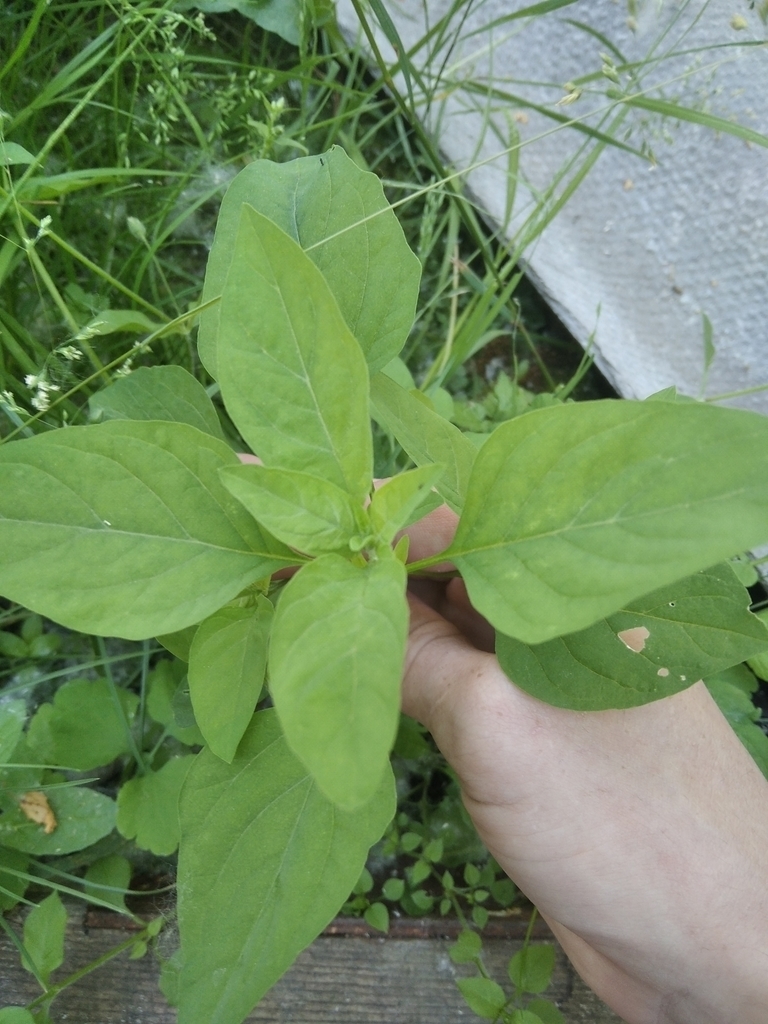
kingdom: Plantae
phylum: Tracheophyta
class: Magnoliopsida
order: Caryophyllales
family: Amaranthaceae
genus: Lipandra
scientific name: Lipandra polysperma
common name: Many-seed goosefoot
